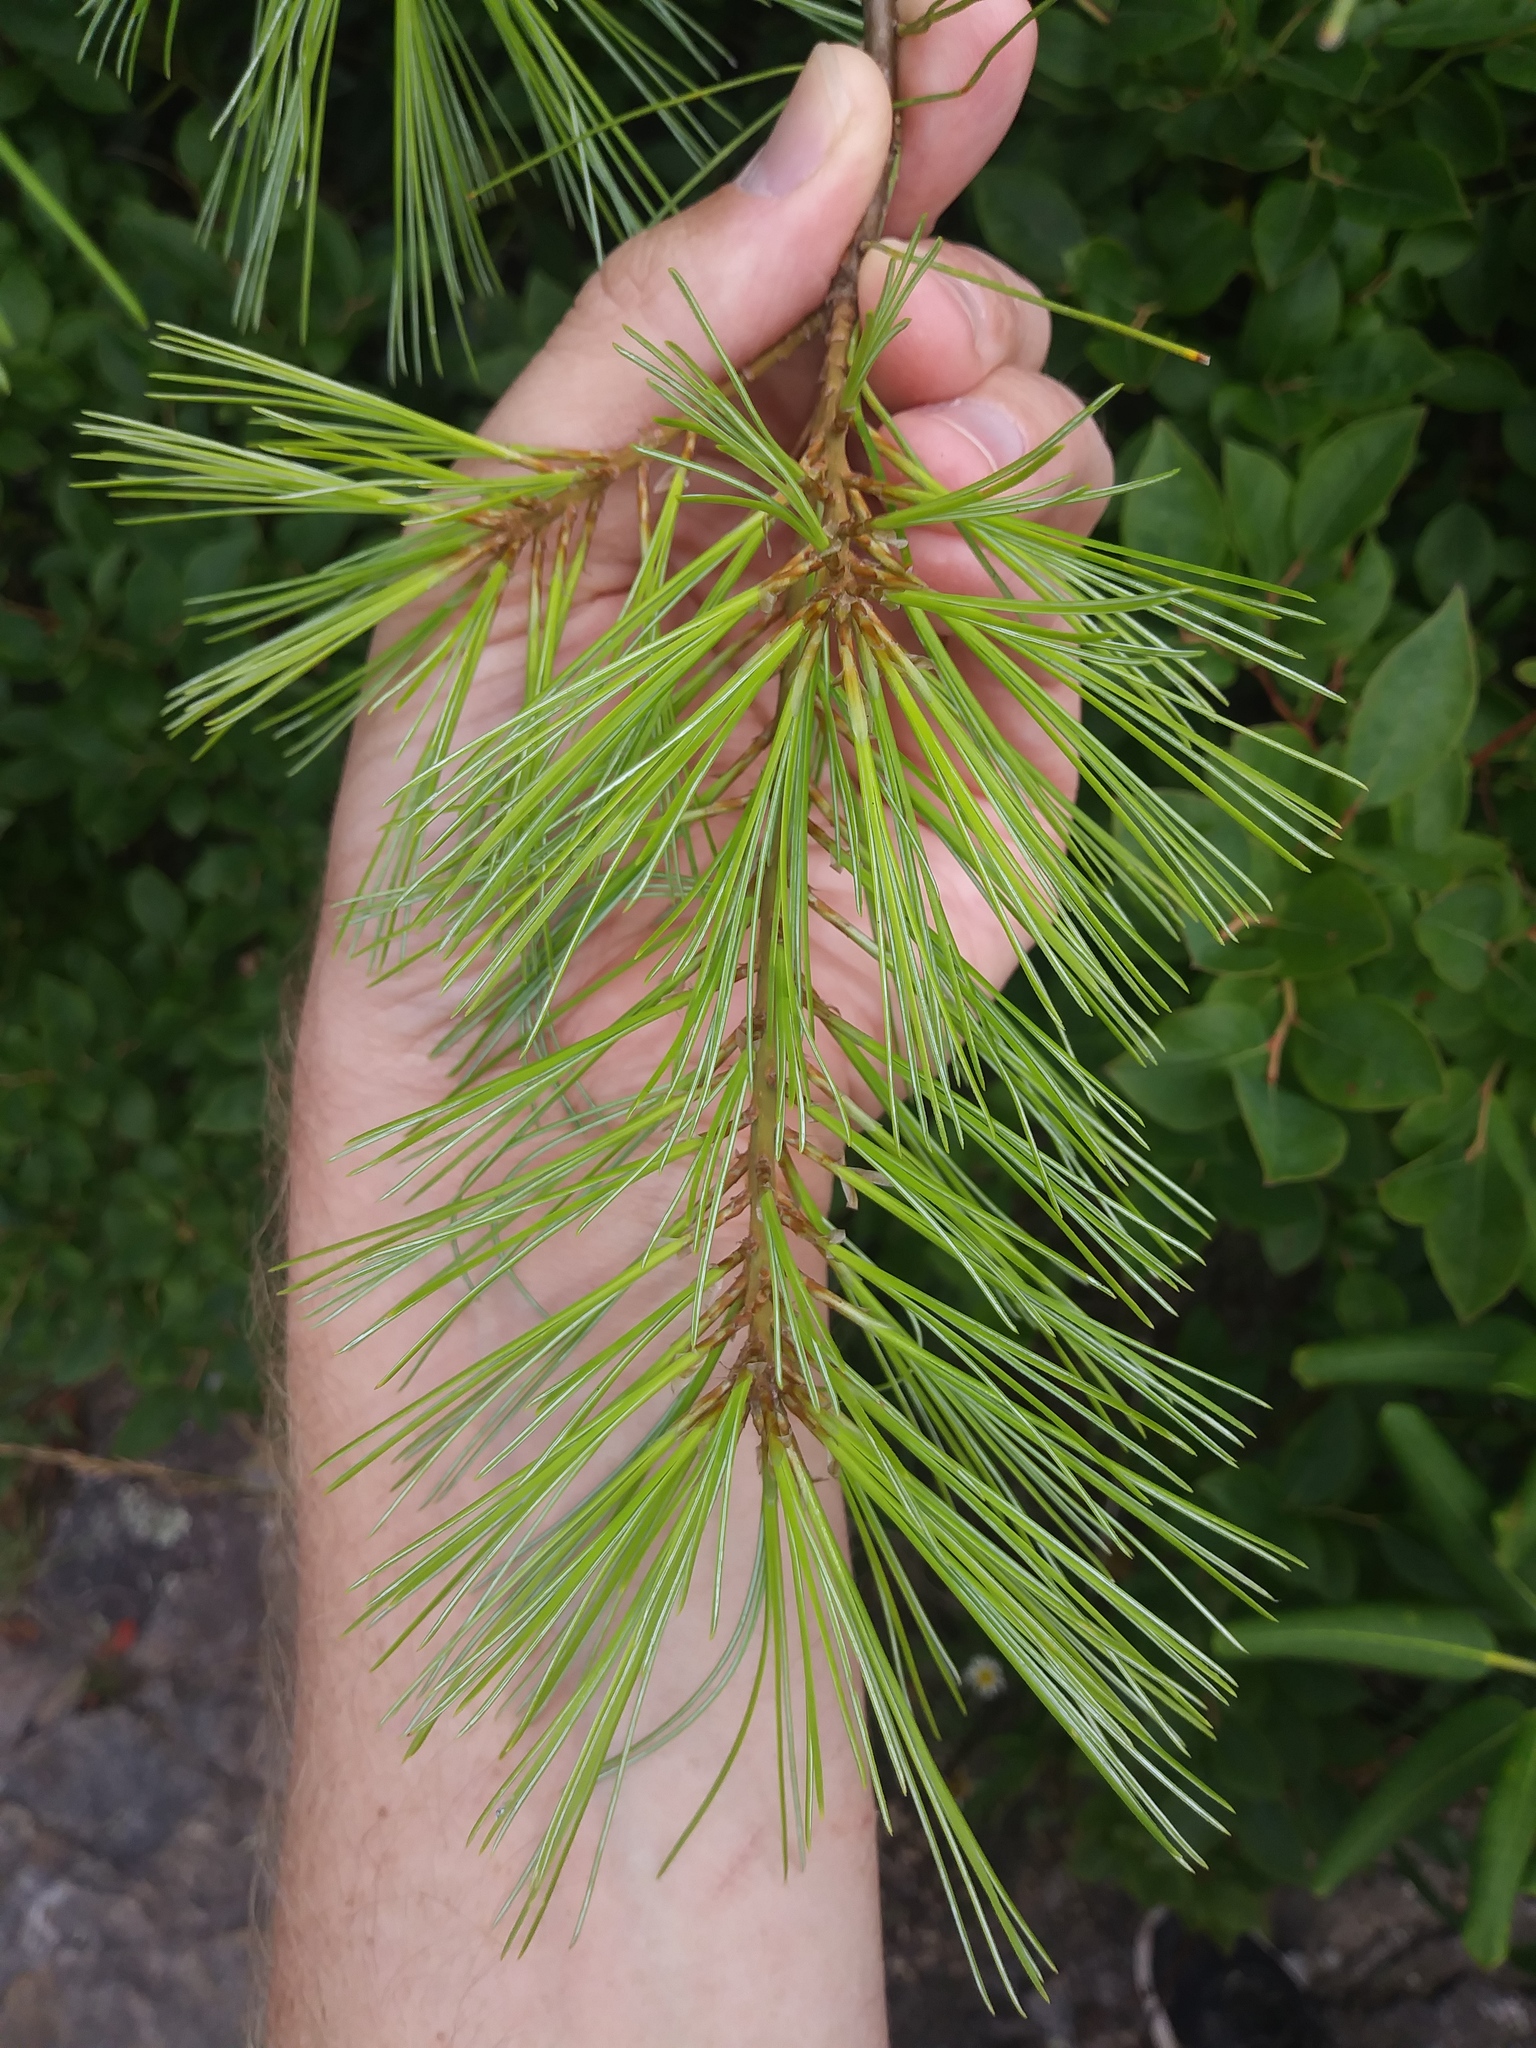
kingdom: Plantae
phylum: Tracheophyta
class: Pinopsida
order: Pinales
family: Pinaceae
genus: Pinus
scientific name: Pinus strobus
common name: Weymouth pine
